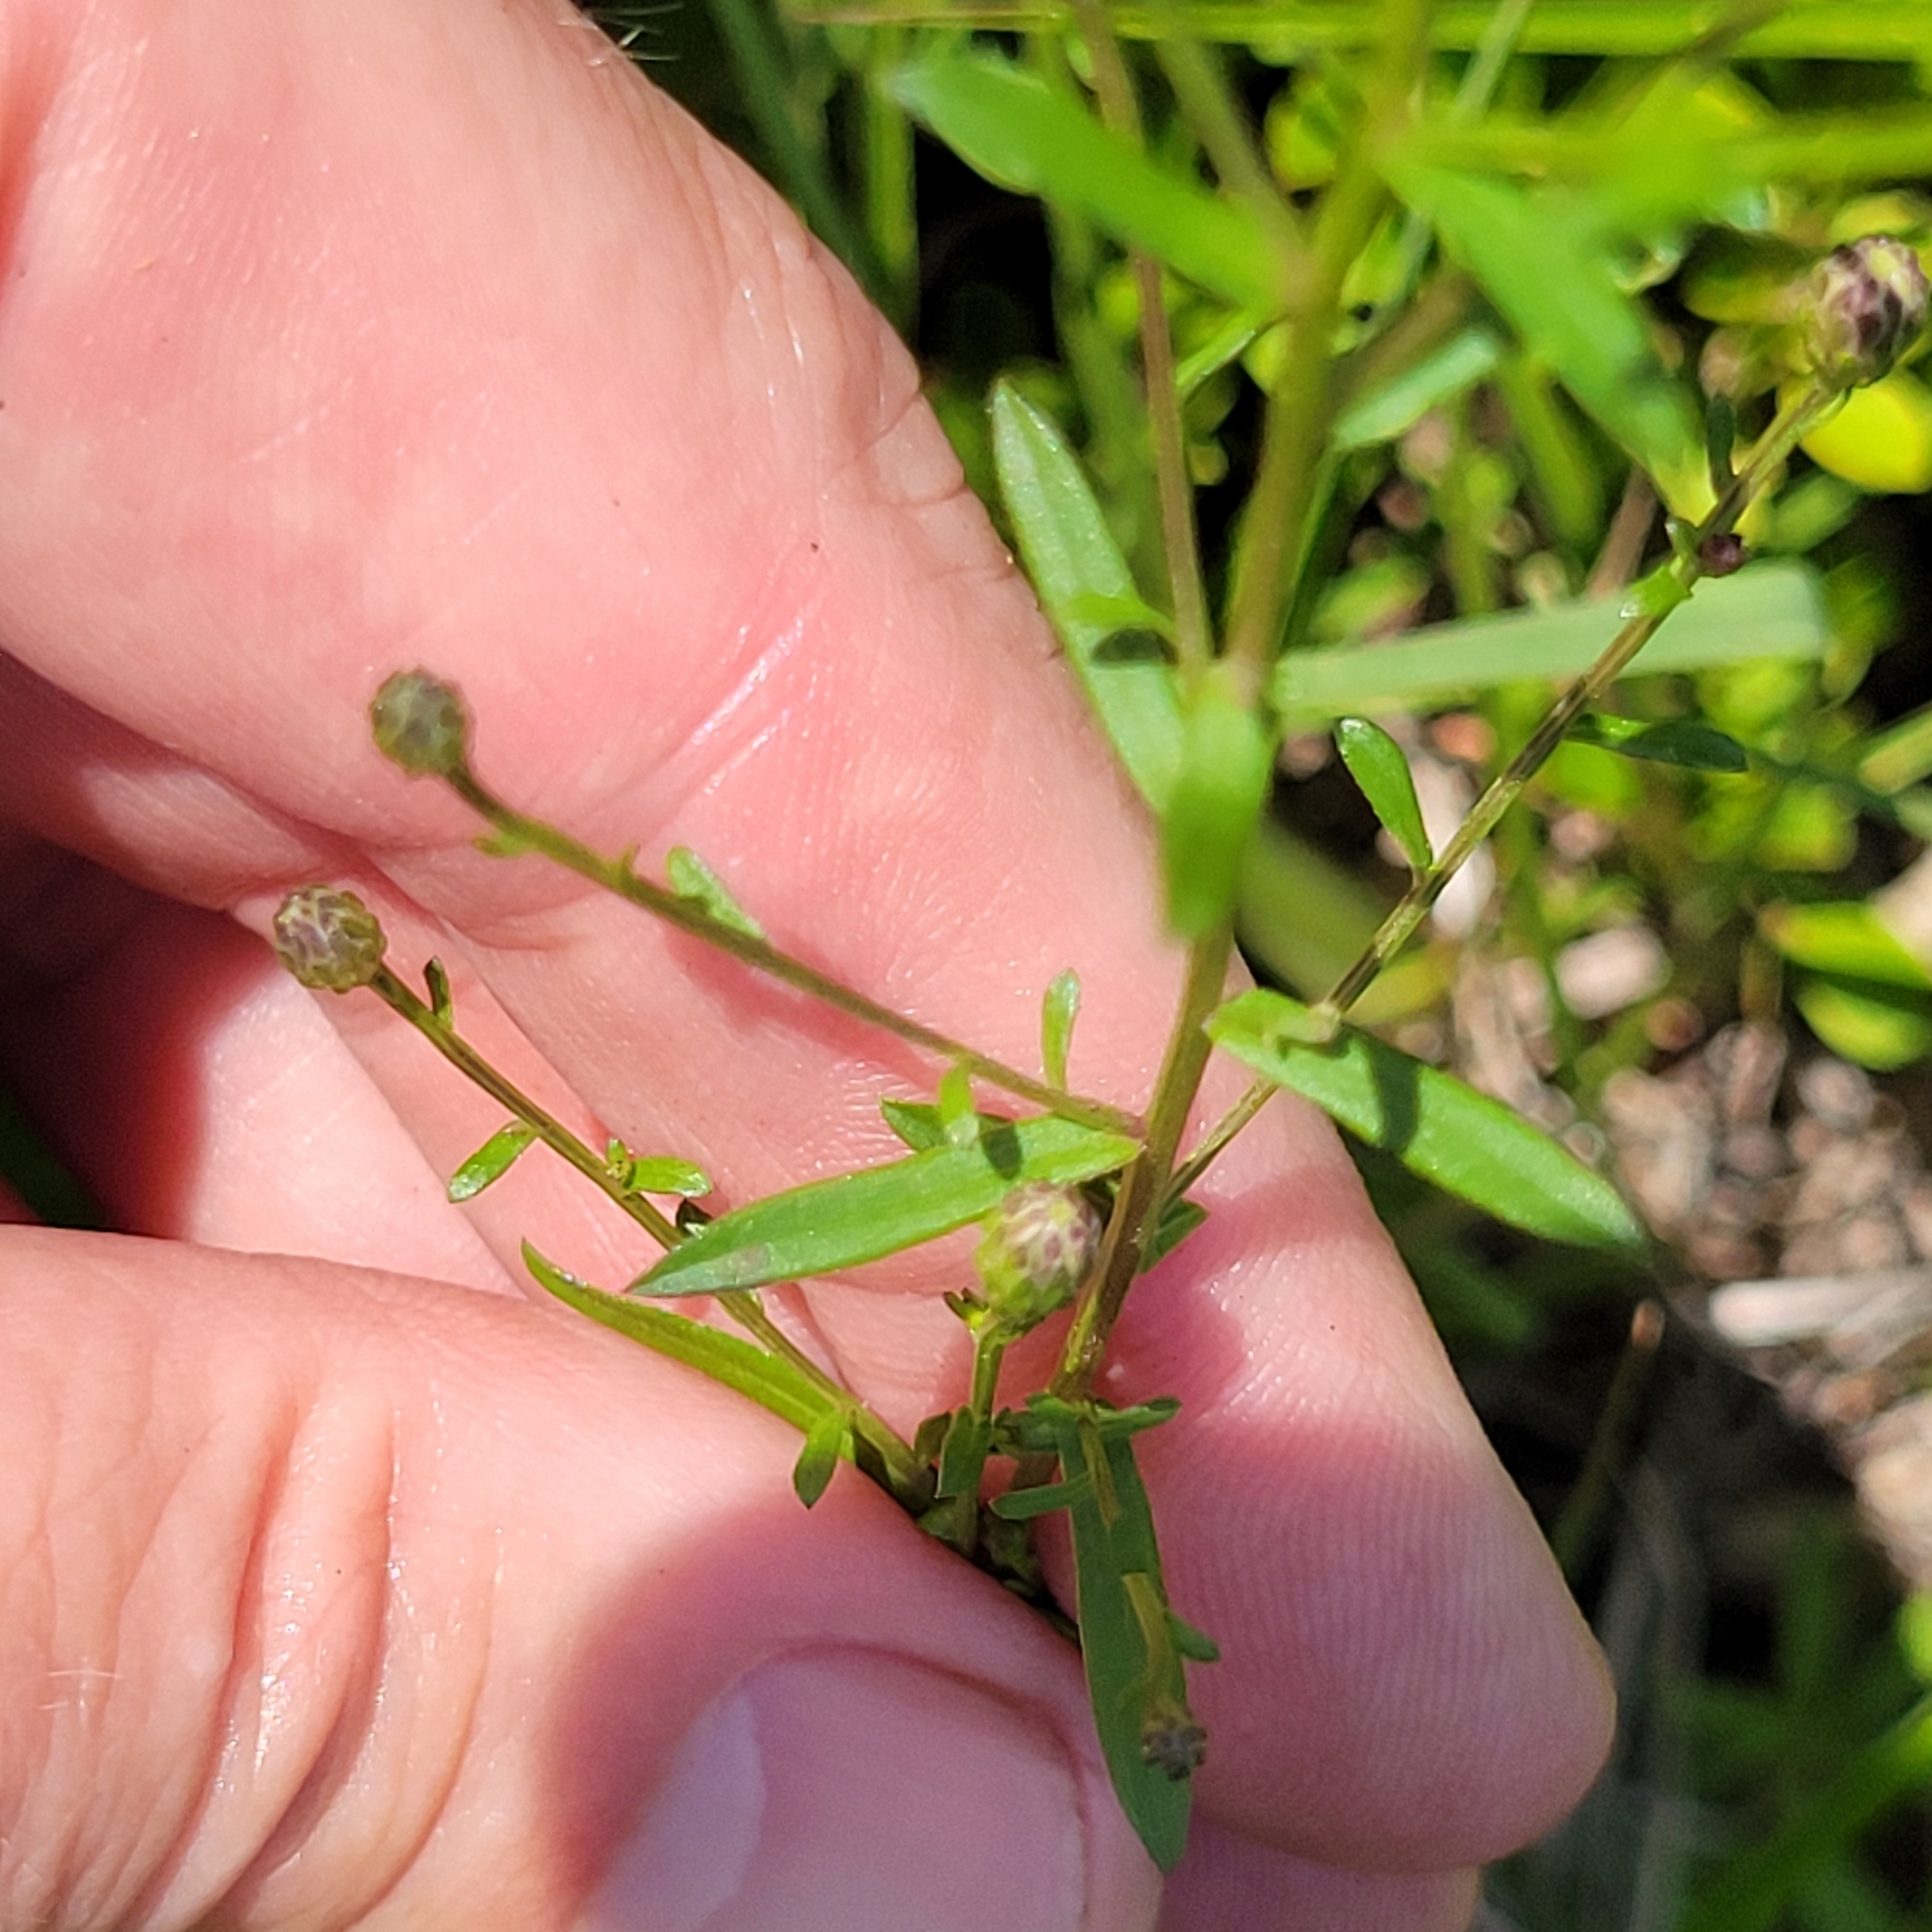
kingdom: Plantae
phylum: Tracheophyta
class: Magnoliopsida
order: Asterales
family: Asteraceae
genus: Symphyotrichum
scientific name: Symphyotrichum dumosum
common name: Bushy aster
